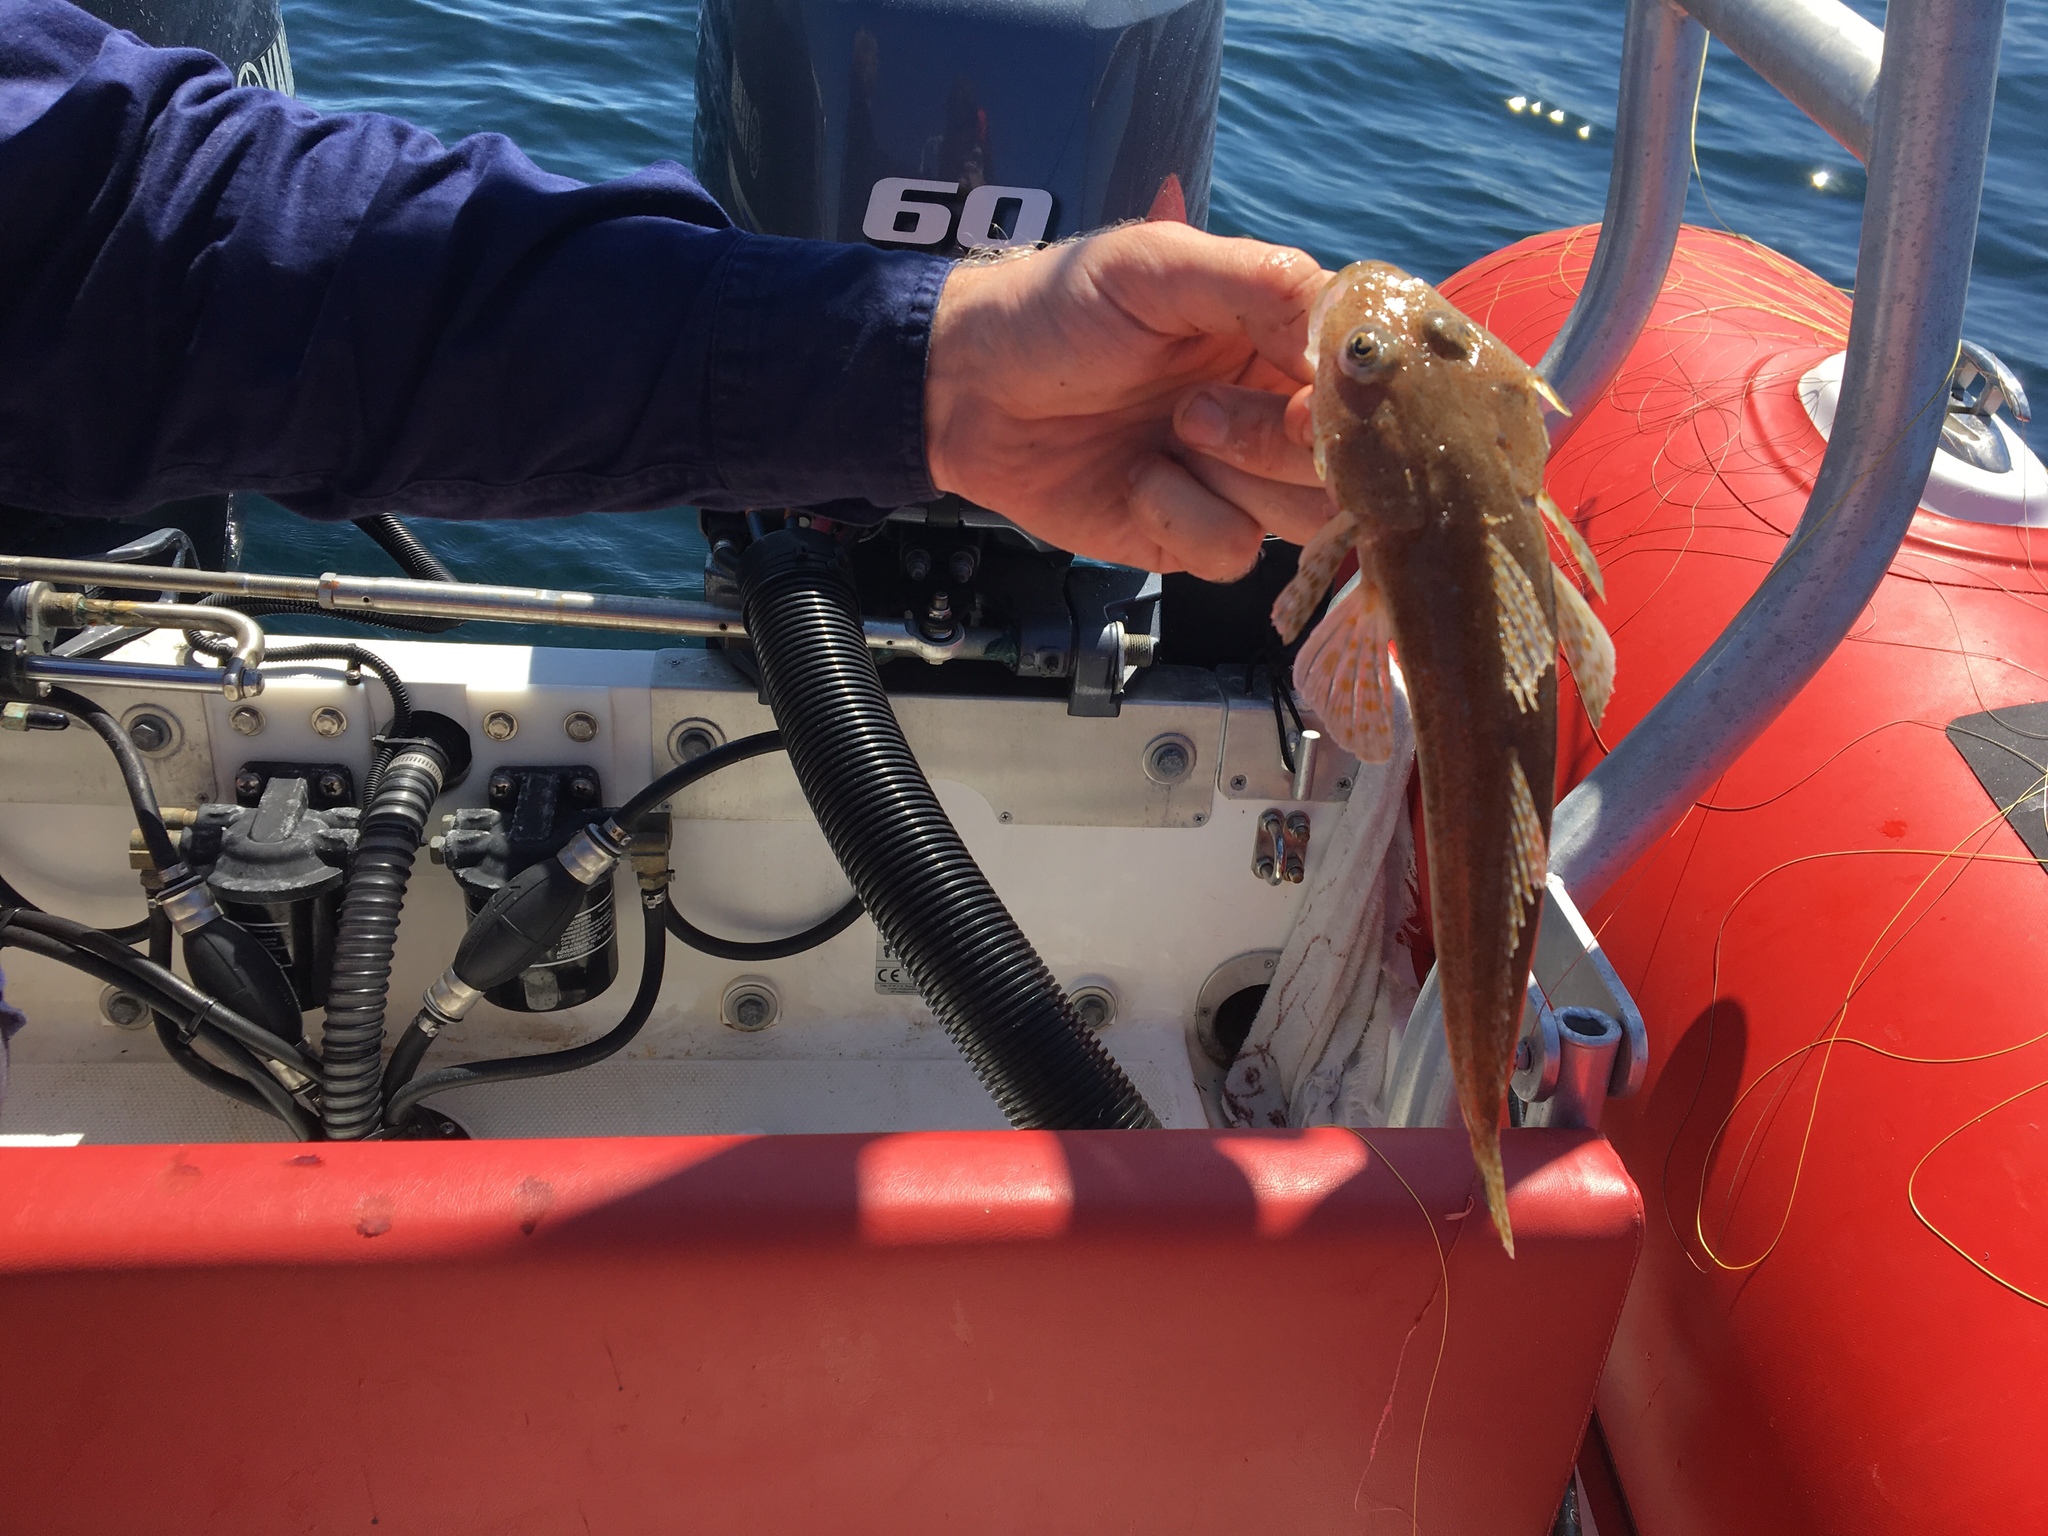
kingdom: Animalia
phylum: Chordata
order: Scorpaeniformes
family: Platycephalidae
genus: Platycephalus
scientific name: Platycephalus grandispinis
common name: Flathead
